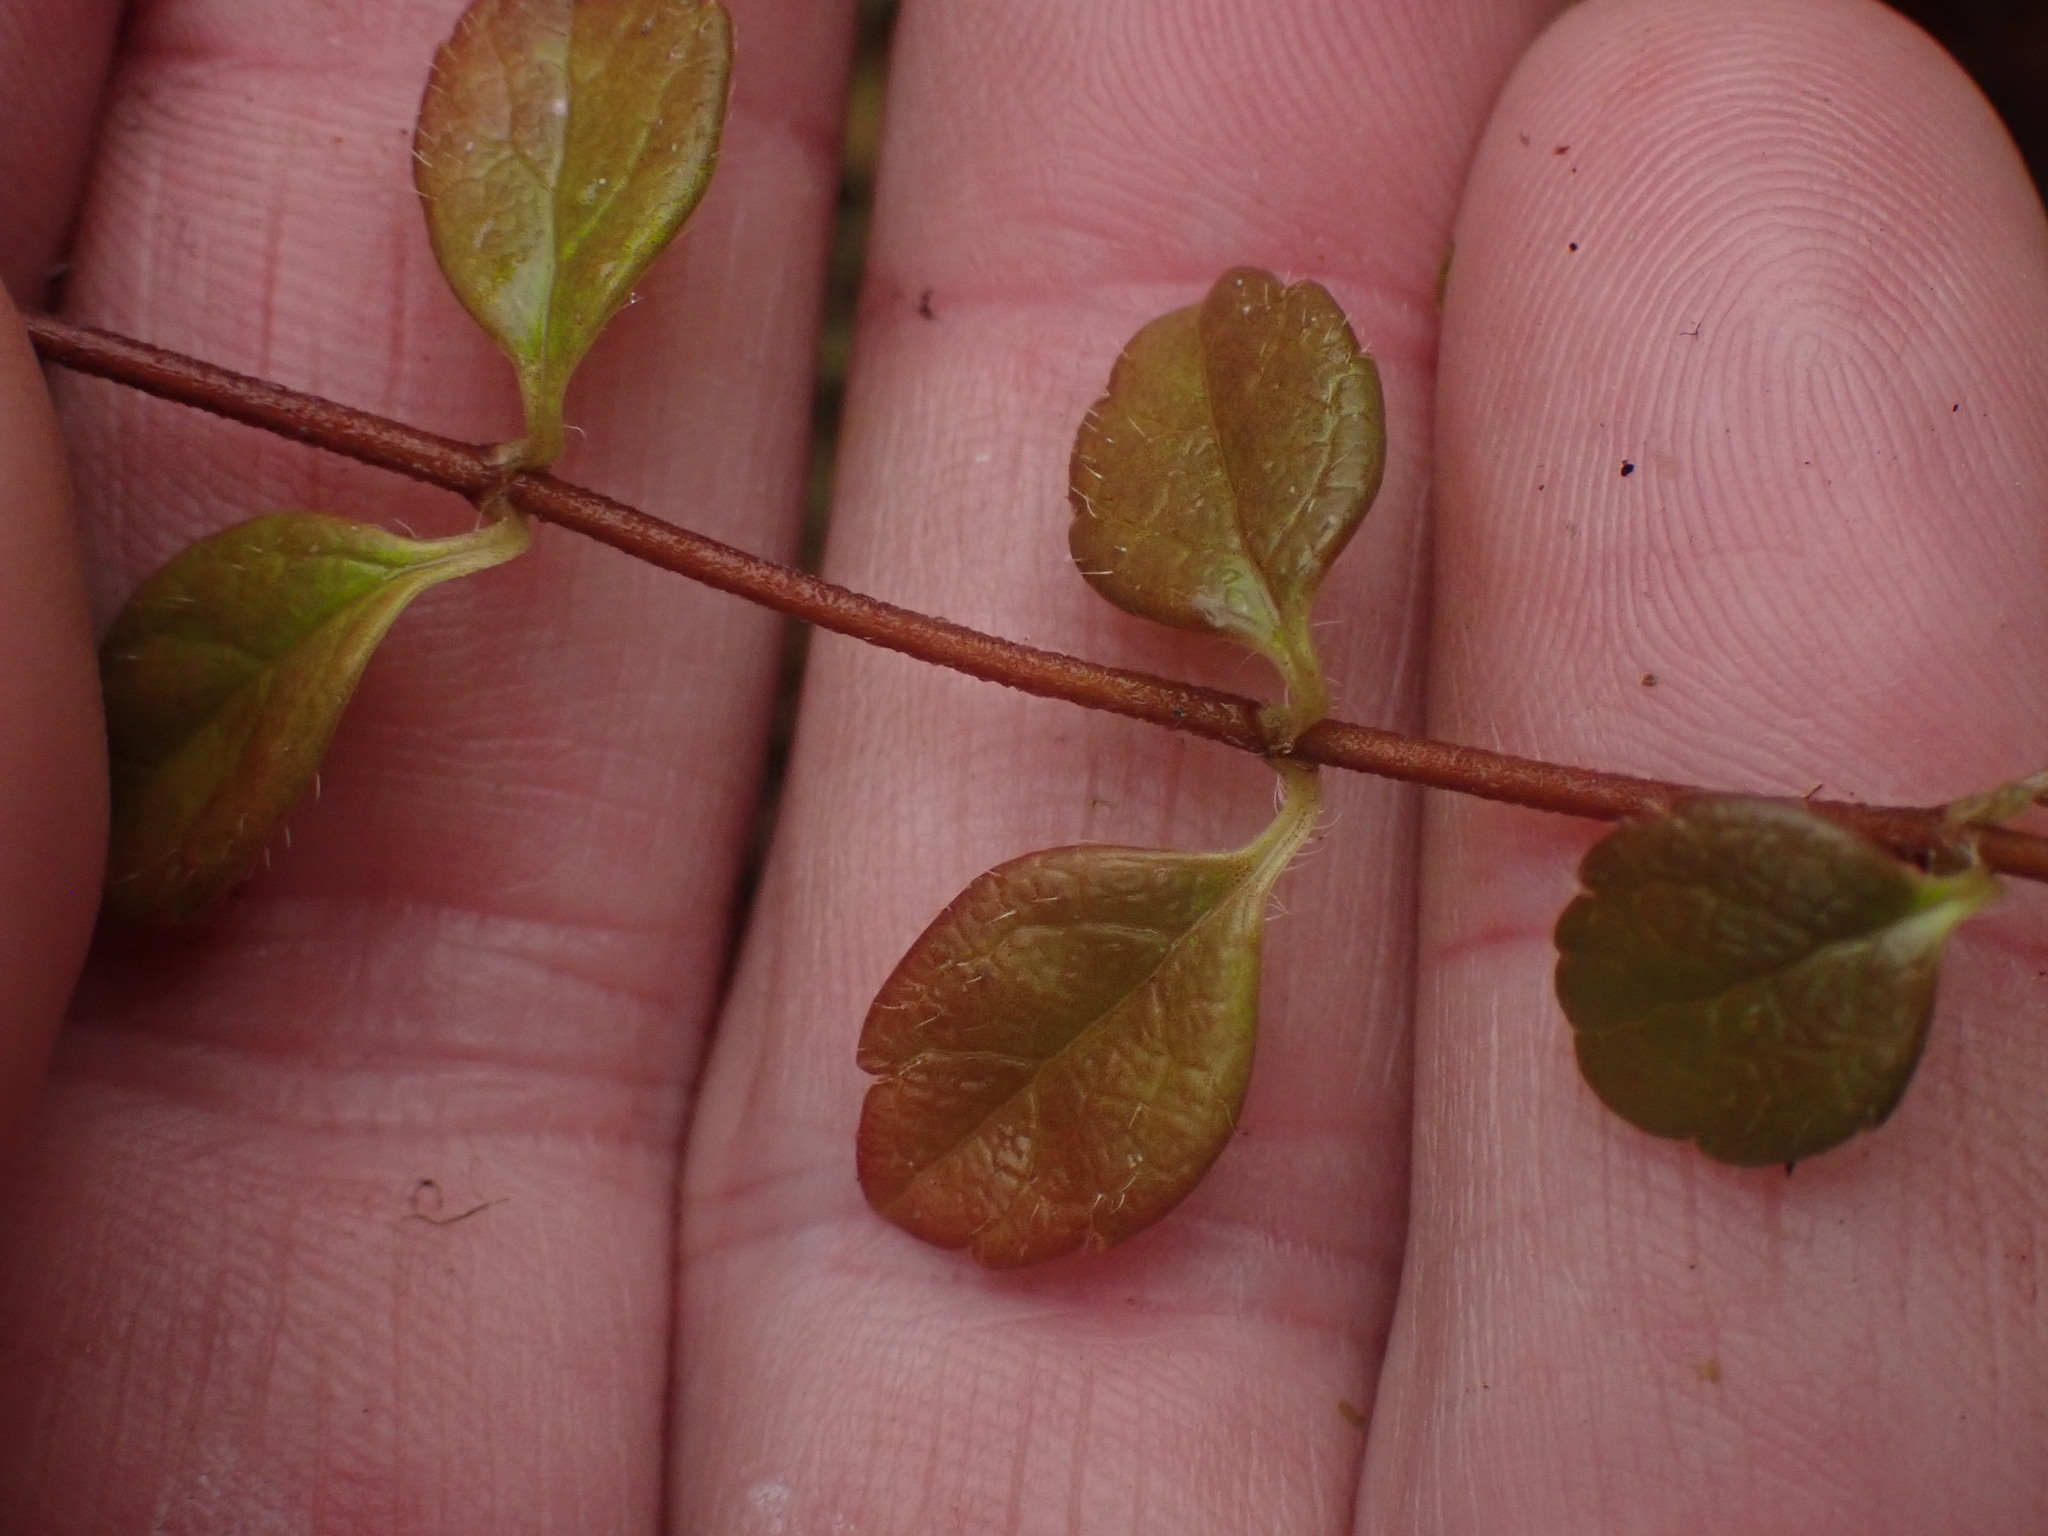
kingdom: Plantae
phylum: Tracheophyta
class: Magnoliopsida
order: Dipsacales
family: Caprifoliaceae
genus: Linnaea
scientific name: Linnaea borealis
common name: Twinflower
